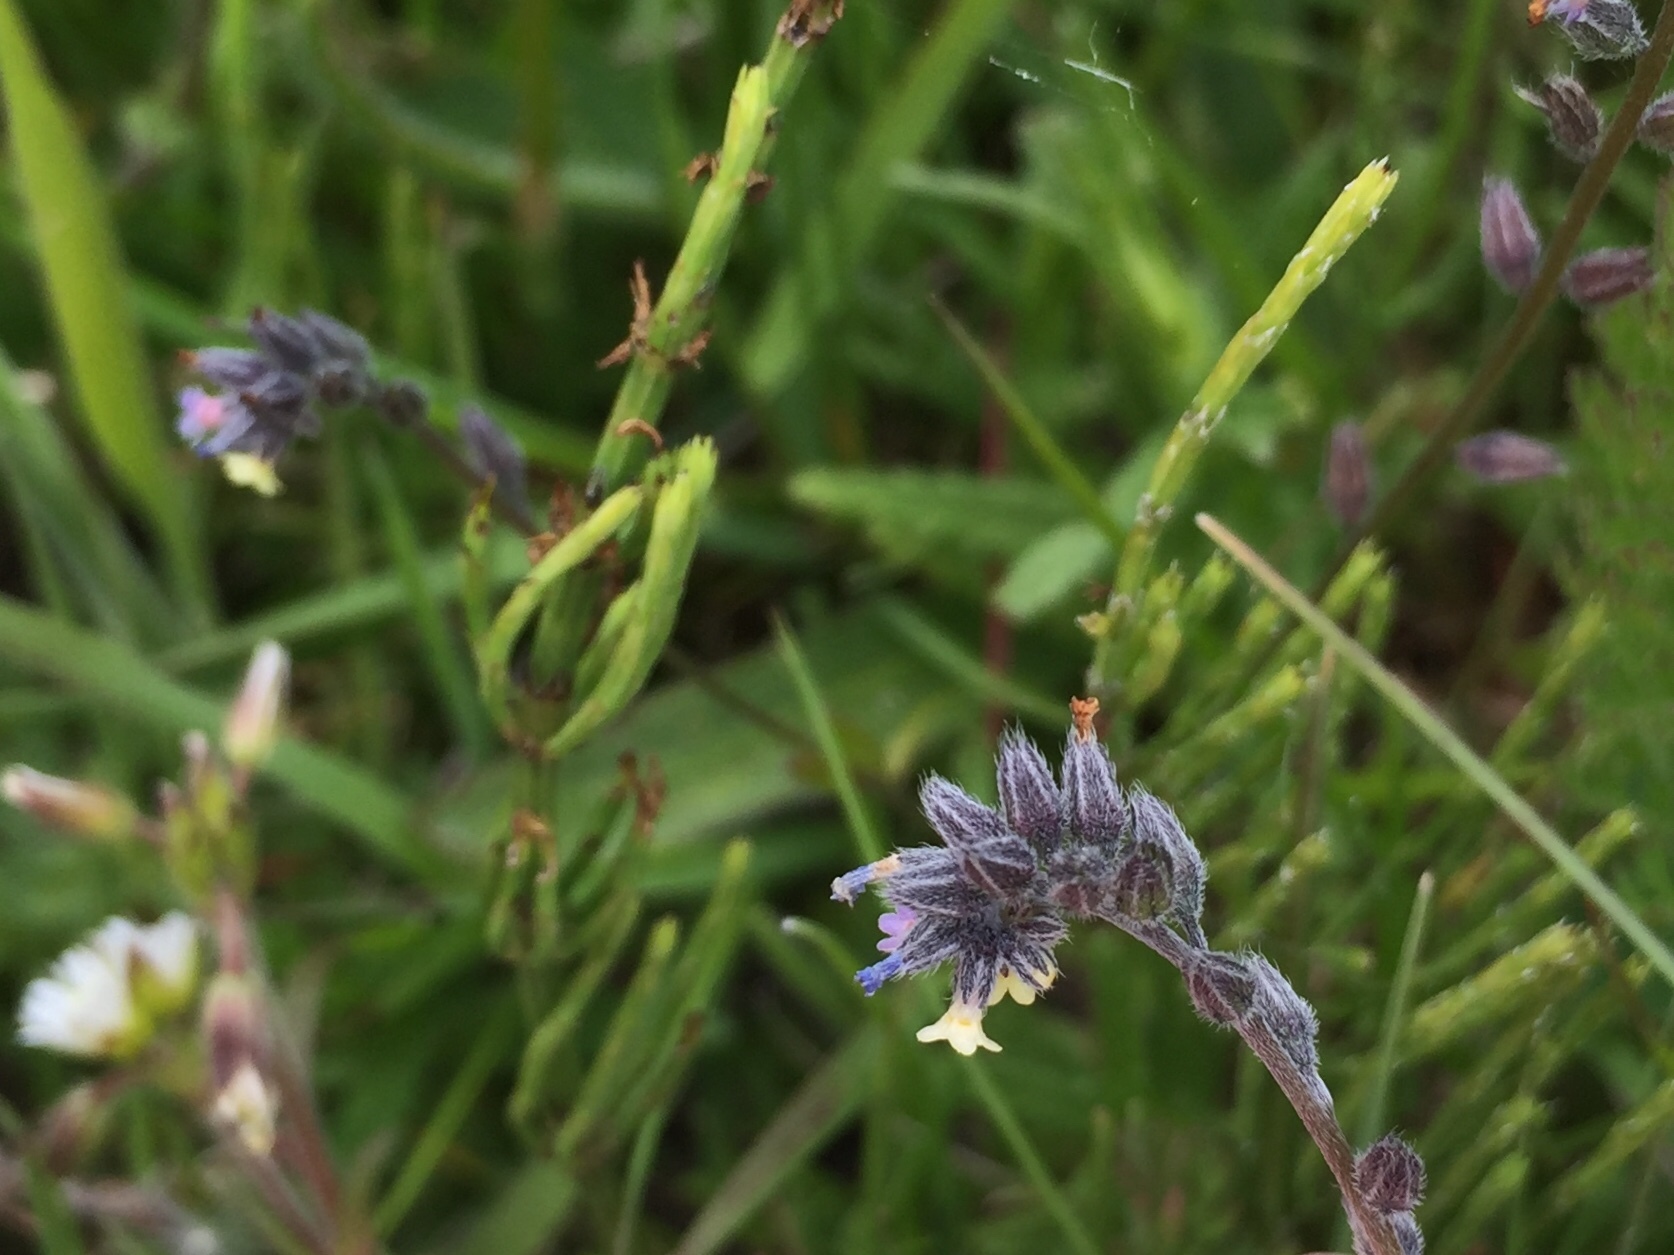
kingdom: Plantae
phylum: Tracheophyta
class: Magnoliopsida
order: Boraginales
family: Boraginaceae
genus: Myosotis
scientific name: Myosotis discolor
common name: Changing forget-me-not
